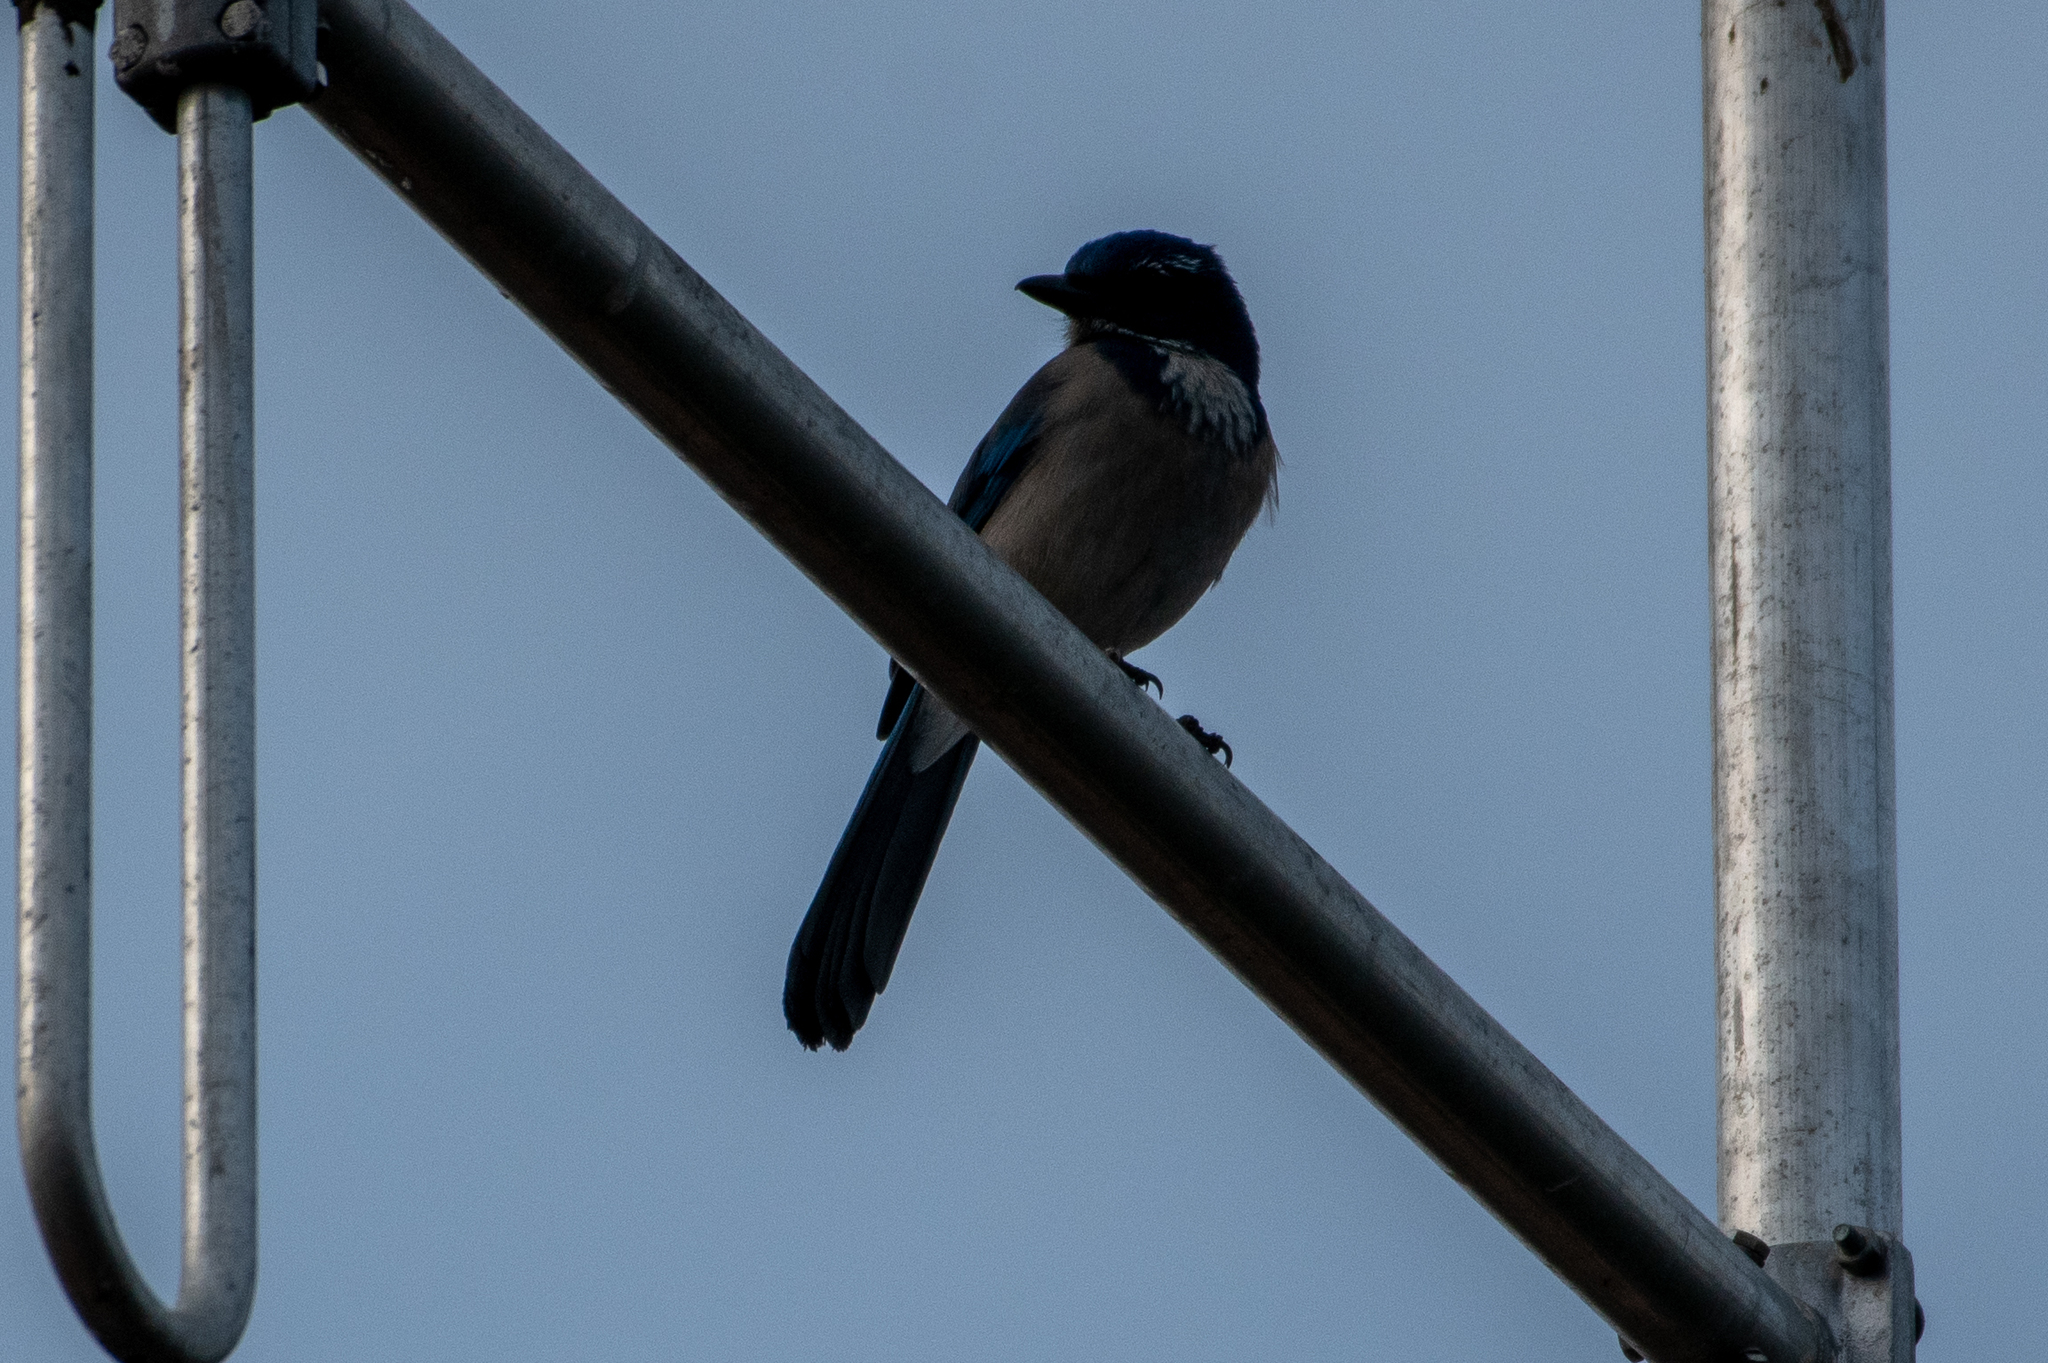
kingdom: Animalia
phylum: Chordata
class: Aves
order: Passeriformes
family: Corvidae
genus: Aphelocoma
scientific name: Aphelocoma californica
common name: California scrub-jay
